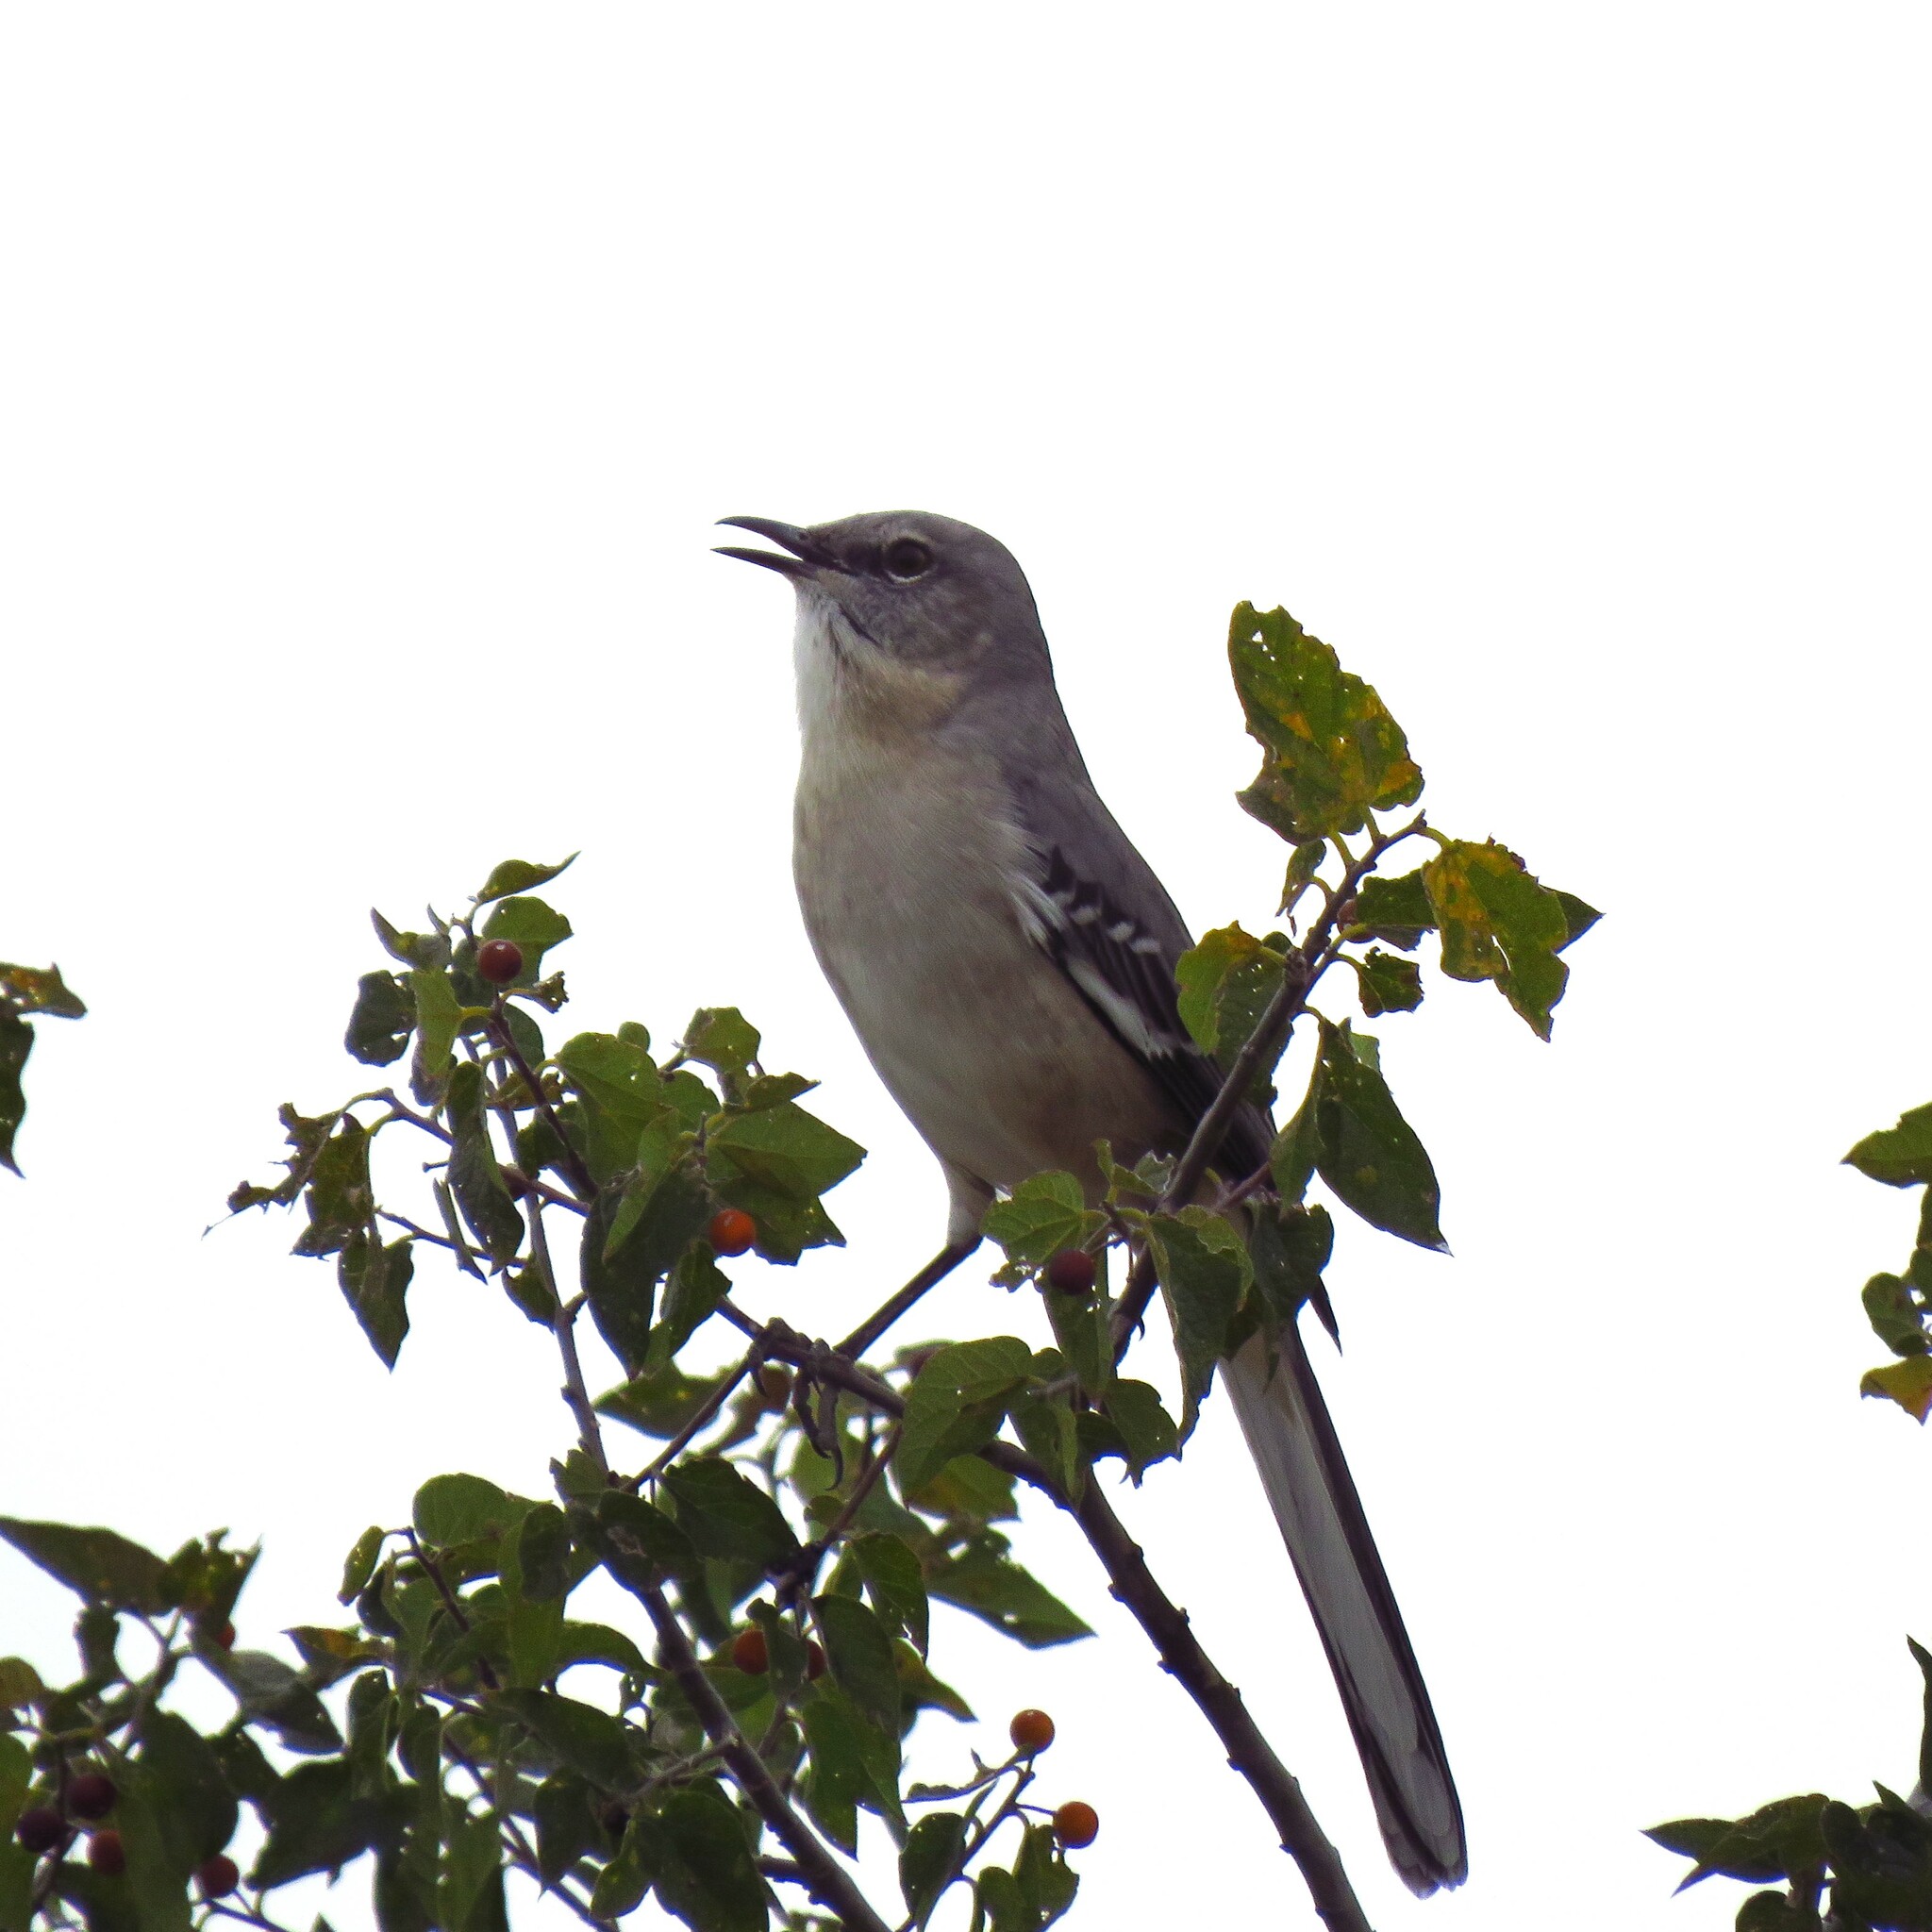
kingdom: Animalia
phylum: Chordata
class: Aves
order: Passeriformes
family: Mimidae
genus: Mimus
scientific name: Mimus polyglottos
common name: Northern mockingbird
